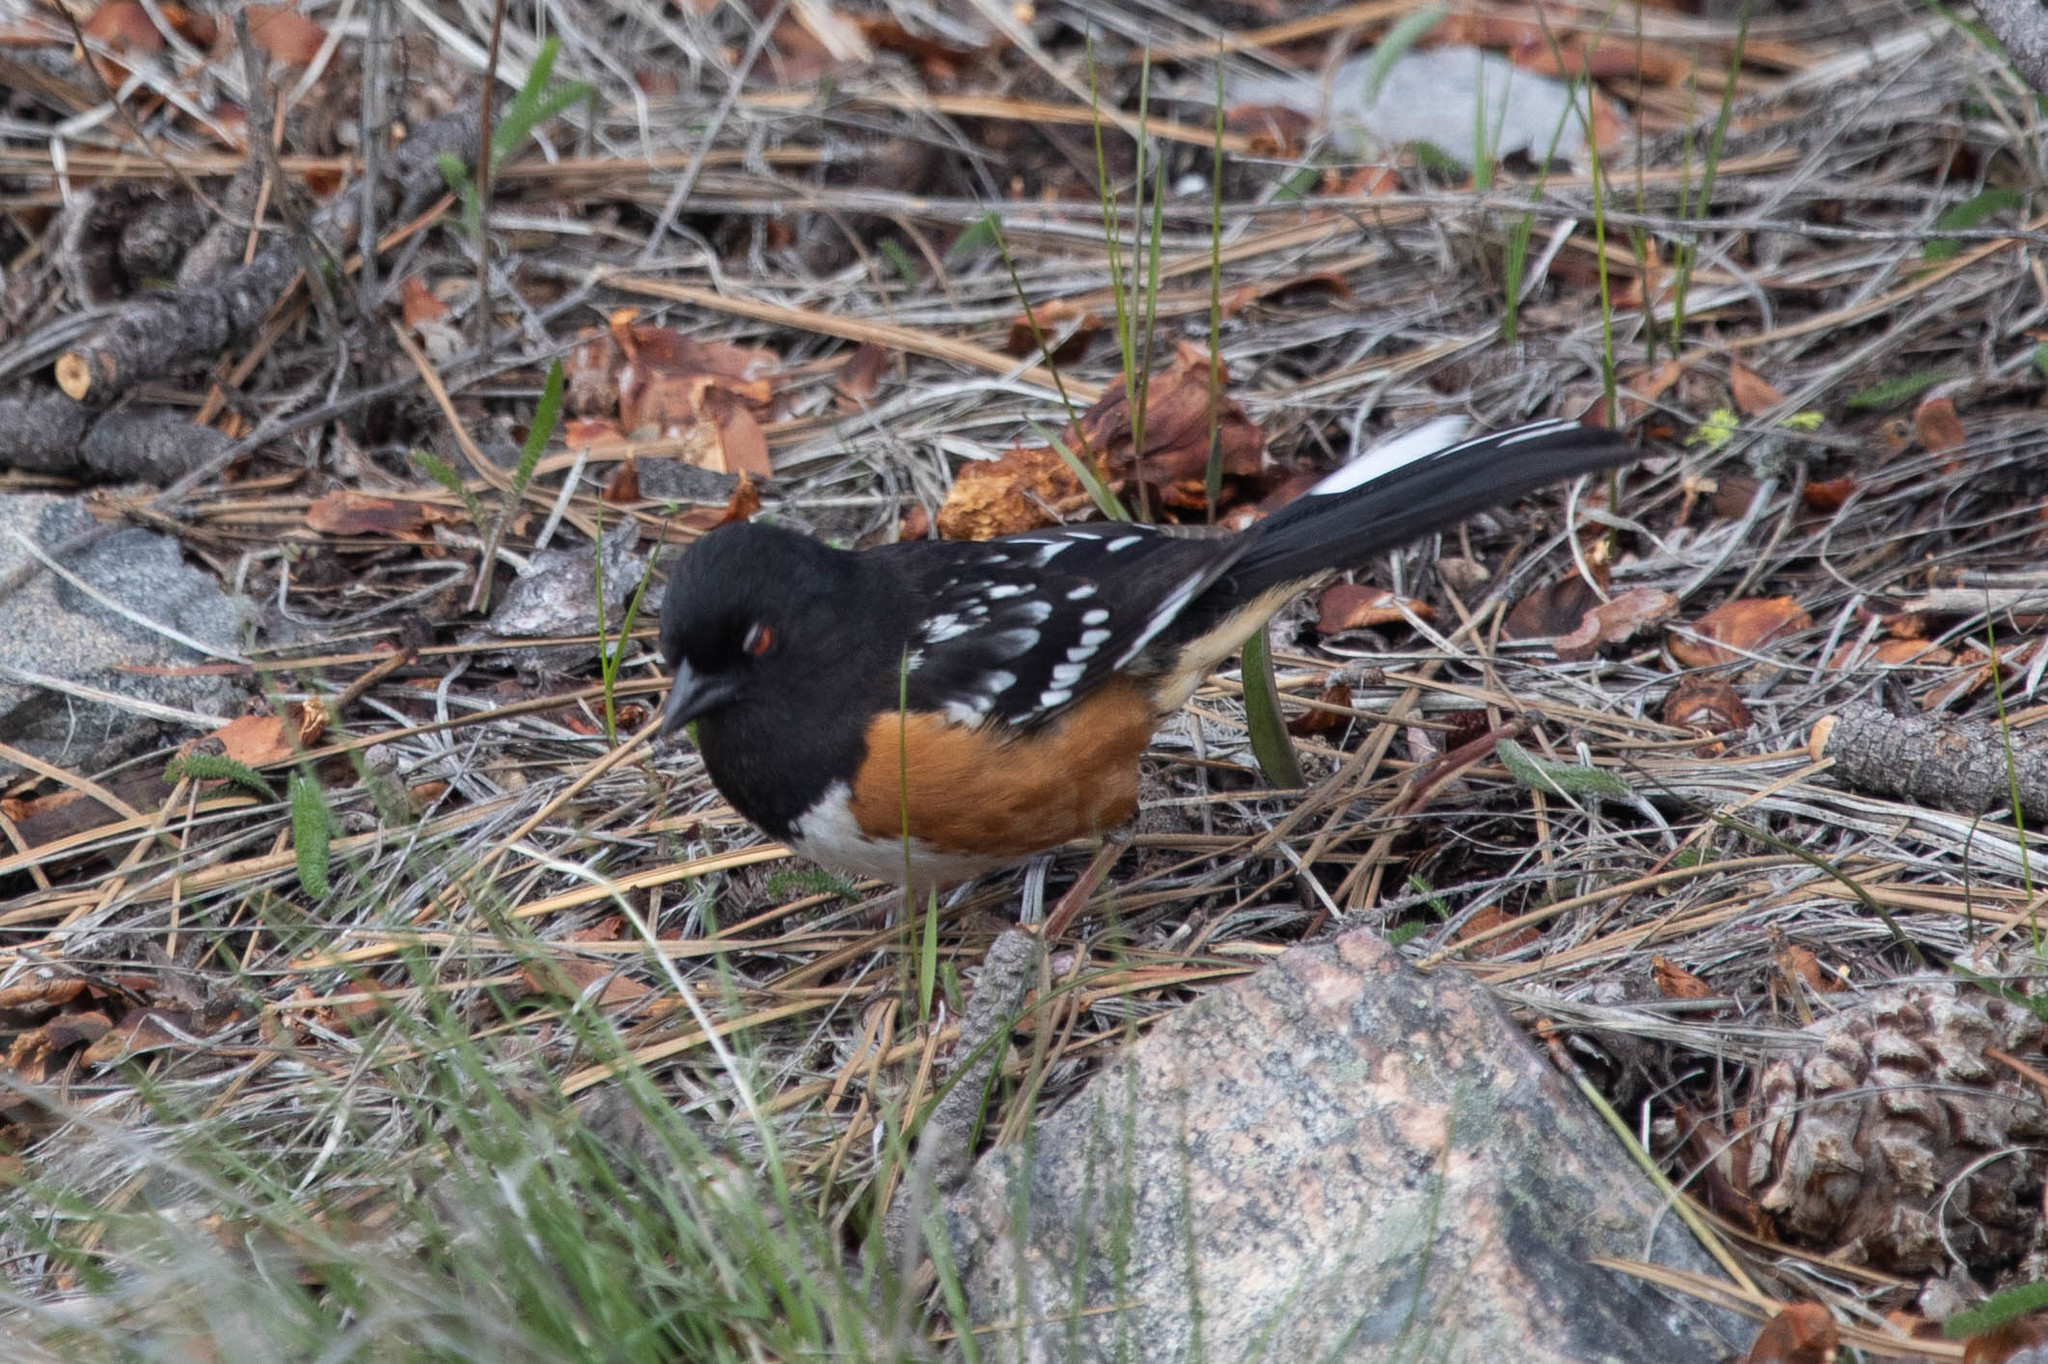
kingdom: Animalia
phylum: Chordata
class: Aves
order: Passeriformes
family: Passerellidae
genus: Pipilo
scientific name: Pipilo maculatus
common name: Spotted towhee
